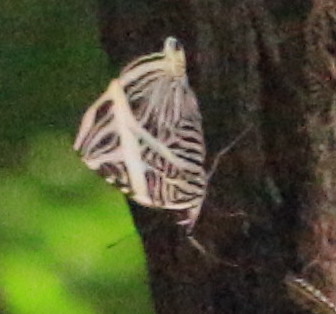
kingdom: Animalia
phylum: Arthropoda
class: Insecta
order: Lepidoptera
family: Nymphalidae
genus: Colobura
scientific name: Colobura dirce
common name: Dirce beauty
